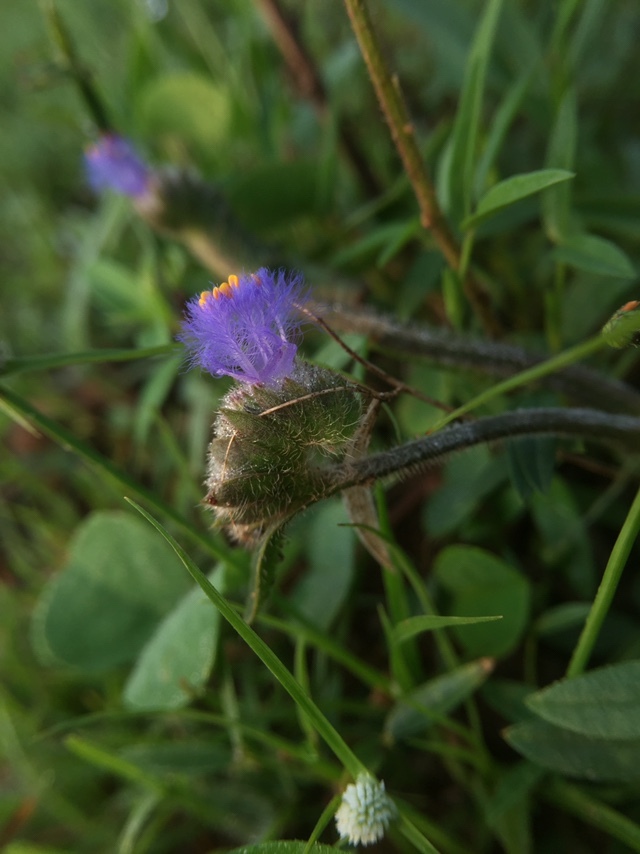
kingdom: Plantae
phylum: Tracheophyta
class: Liliopsida
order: Commelinales
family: Commelinaceae
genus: Cyanotis
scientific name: Cyanotis adscendens
